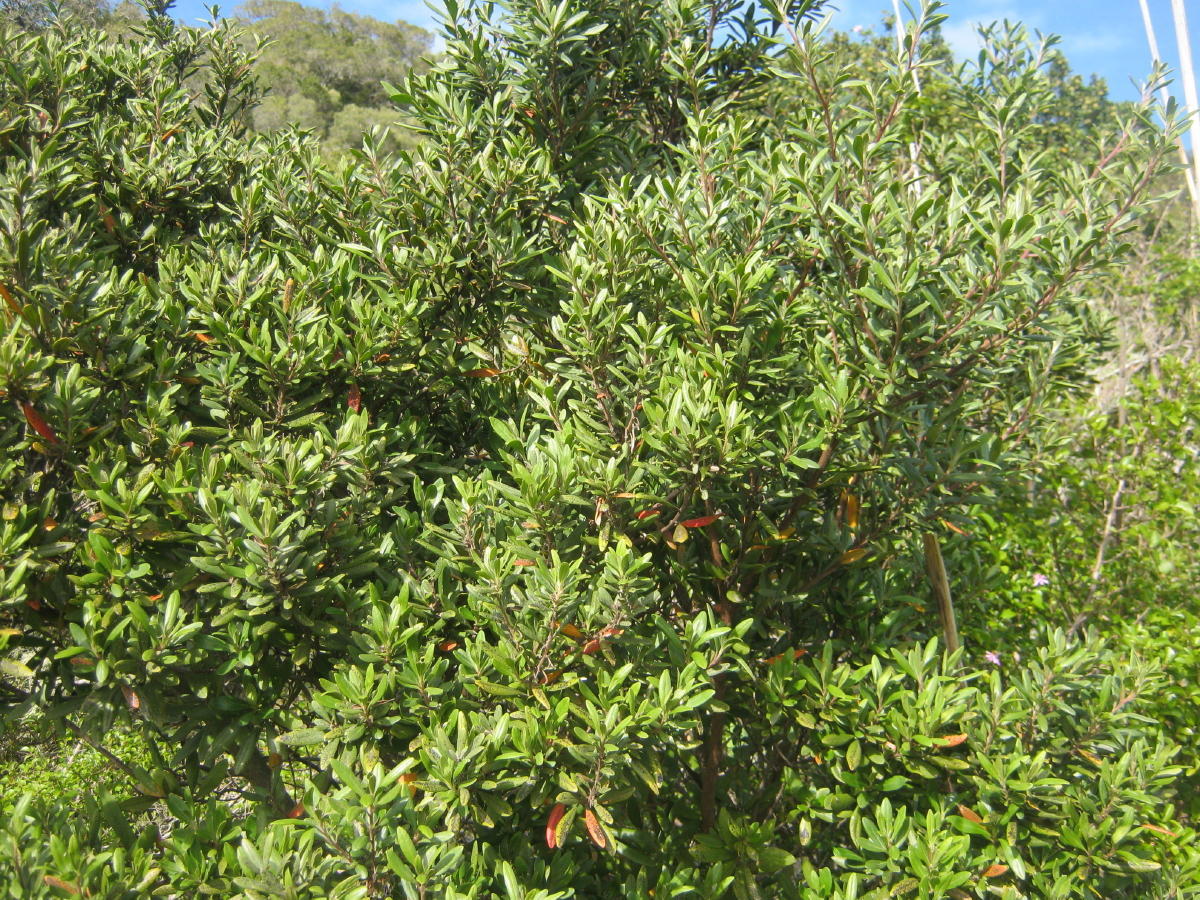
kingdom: Plantae
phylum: Tracheophyta
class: Magnoliopsida
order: Ericales
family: Ebenaceae
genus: Diospyros
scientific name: Diospyros dichrophylla
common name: Common star-apple
